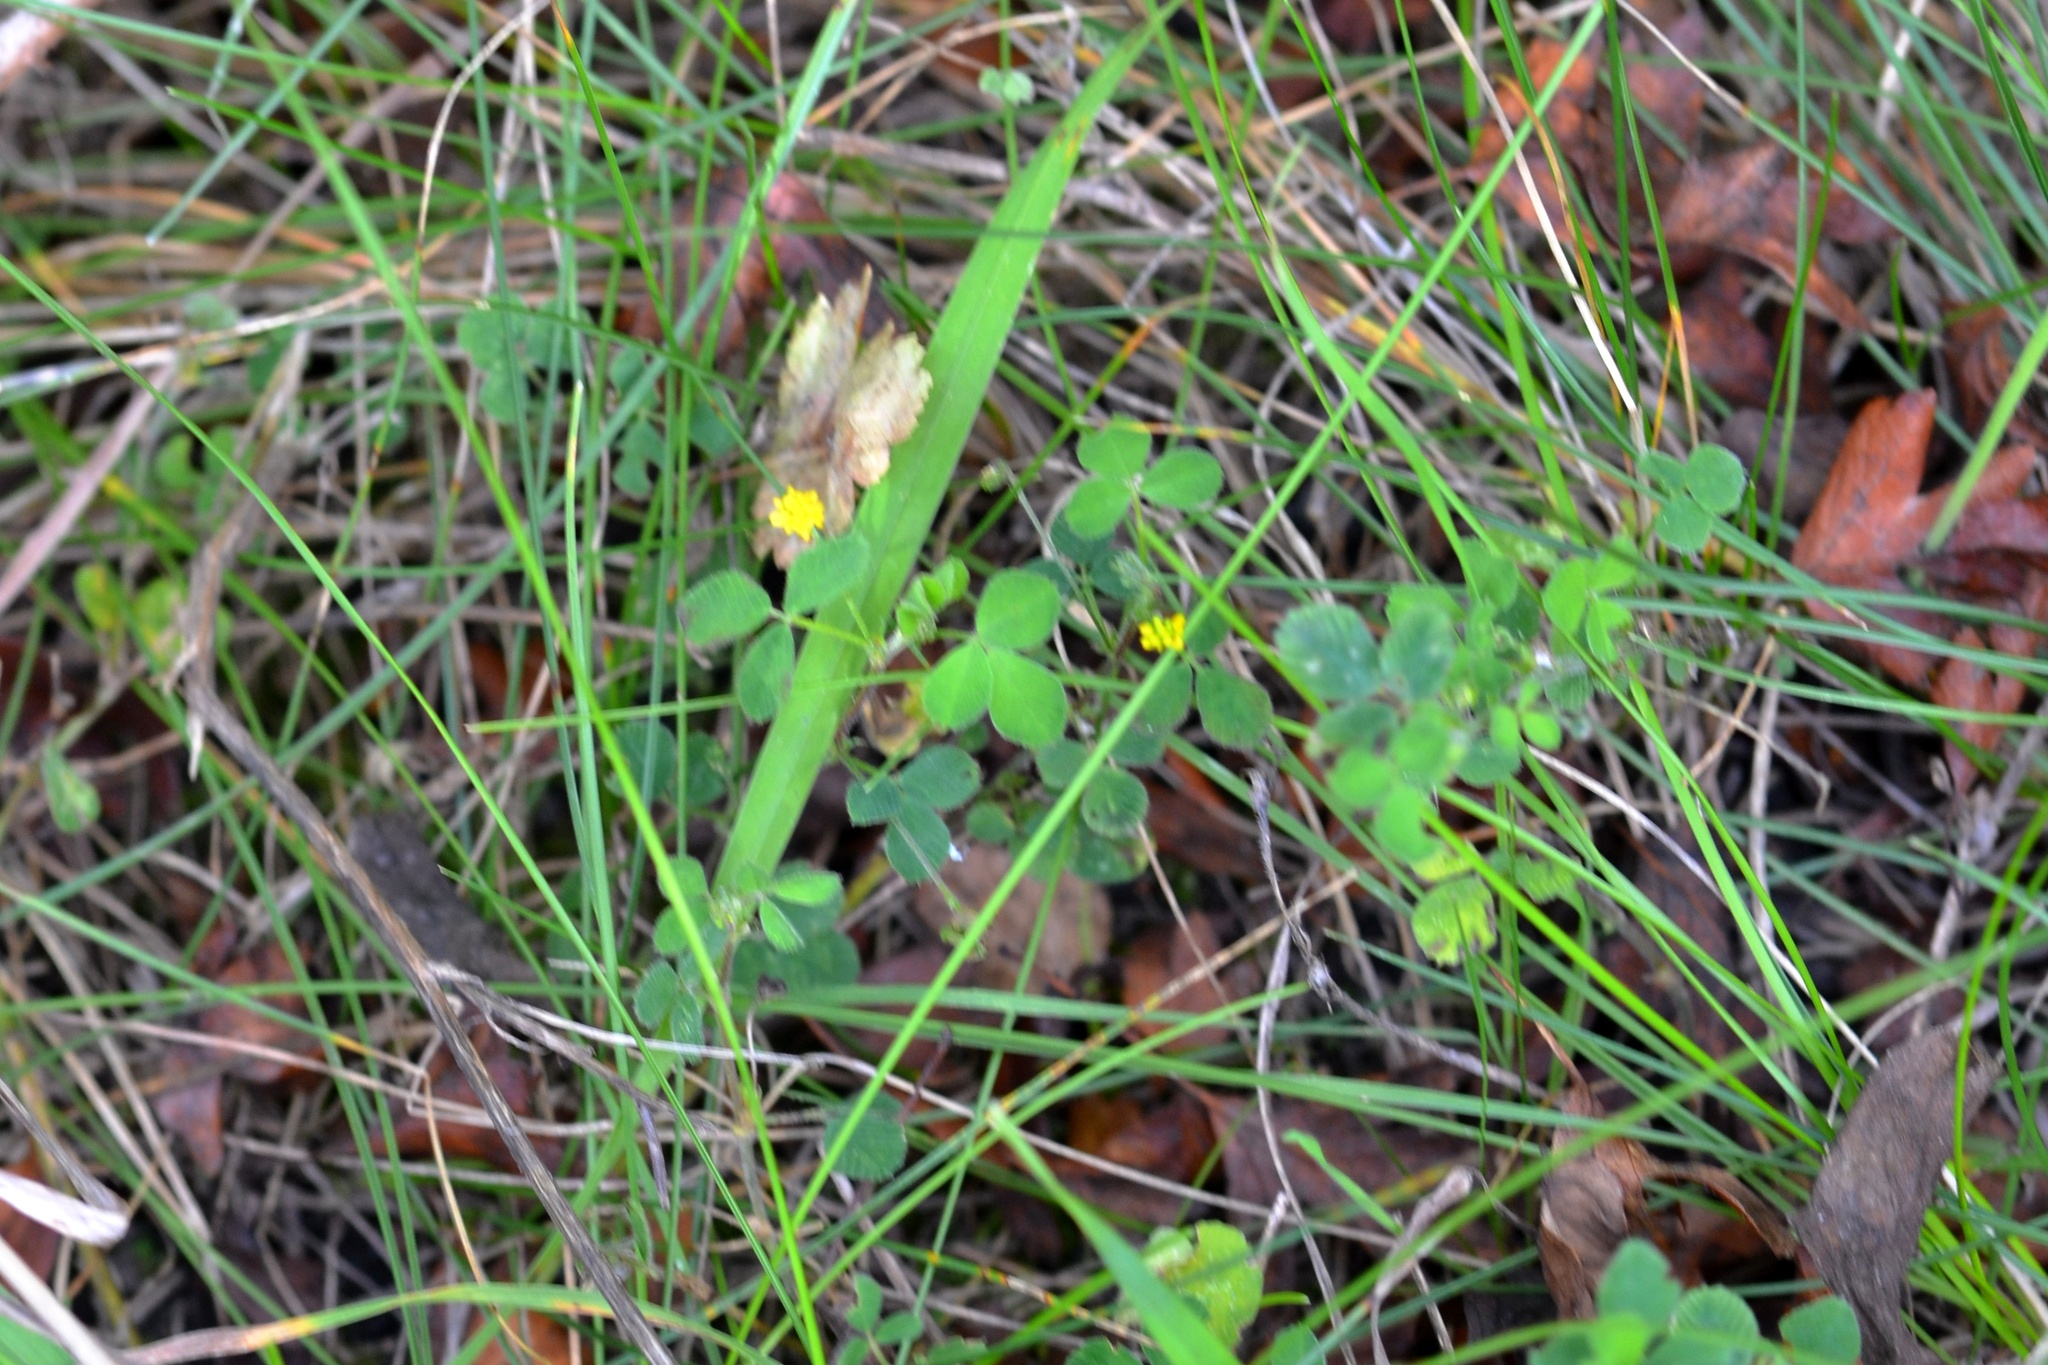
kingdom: Plantae
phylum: Tracheophyta
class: Magnoliopsida
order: Fabales
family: Fabaceae
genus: Medicago
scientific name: Medicago lupulina
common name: Black medick
